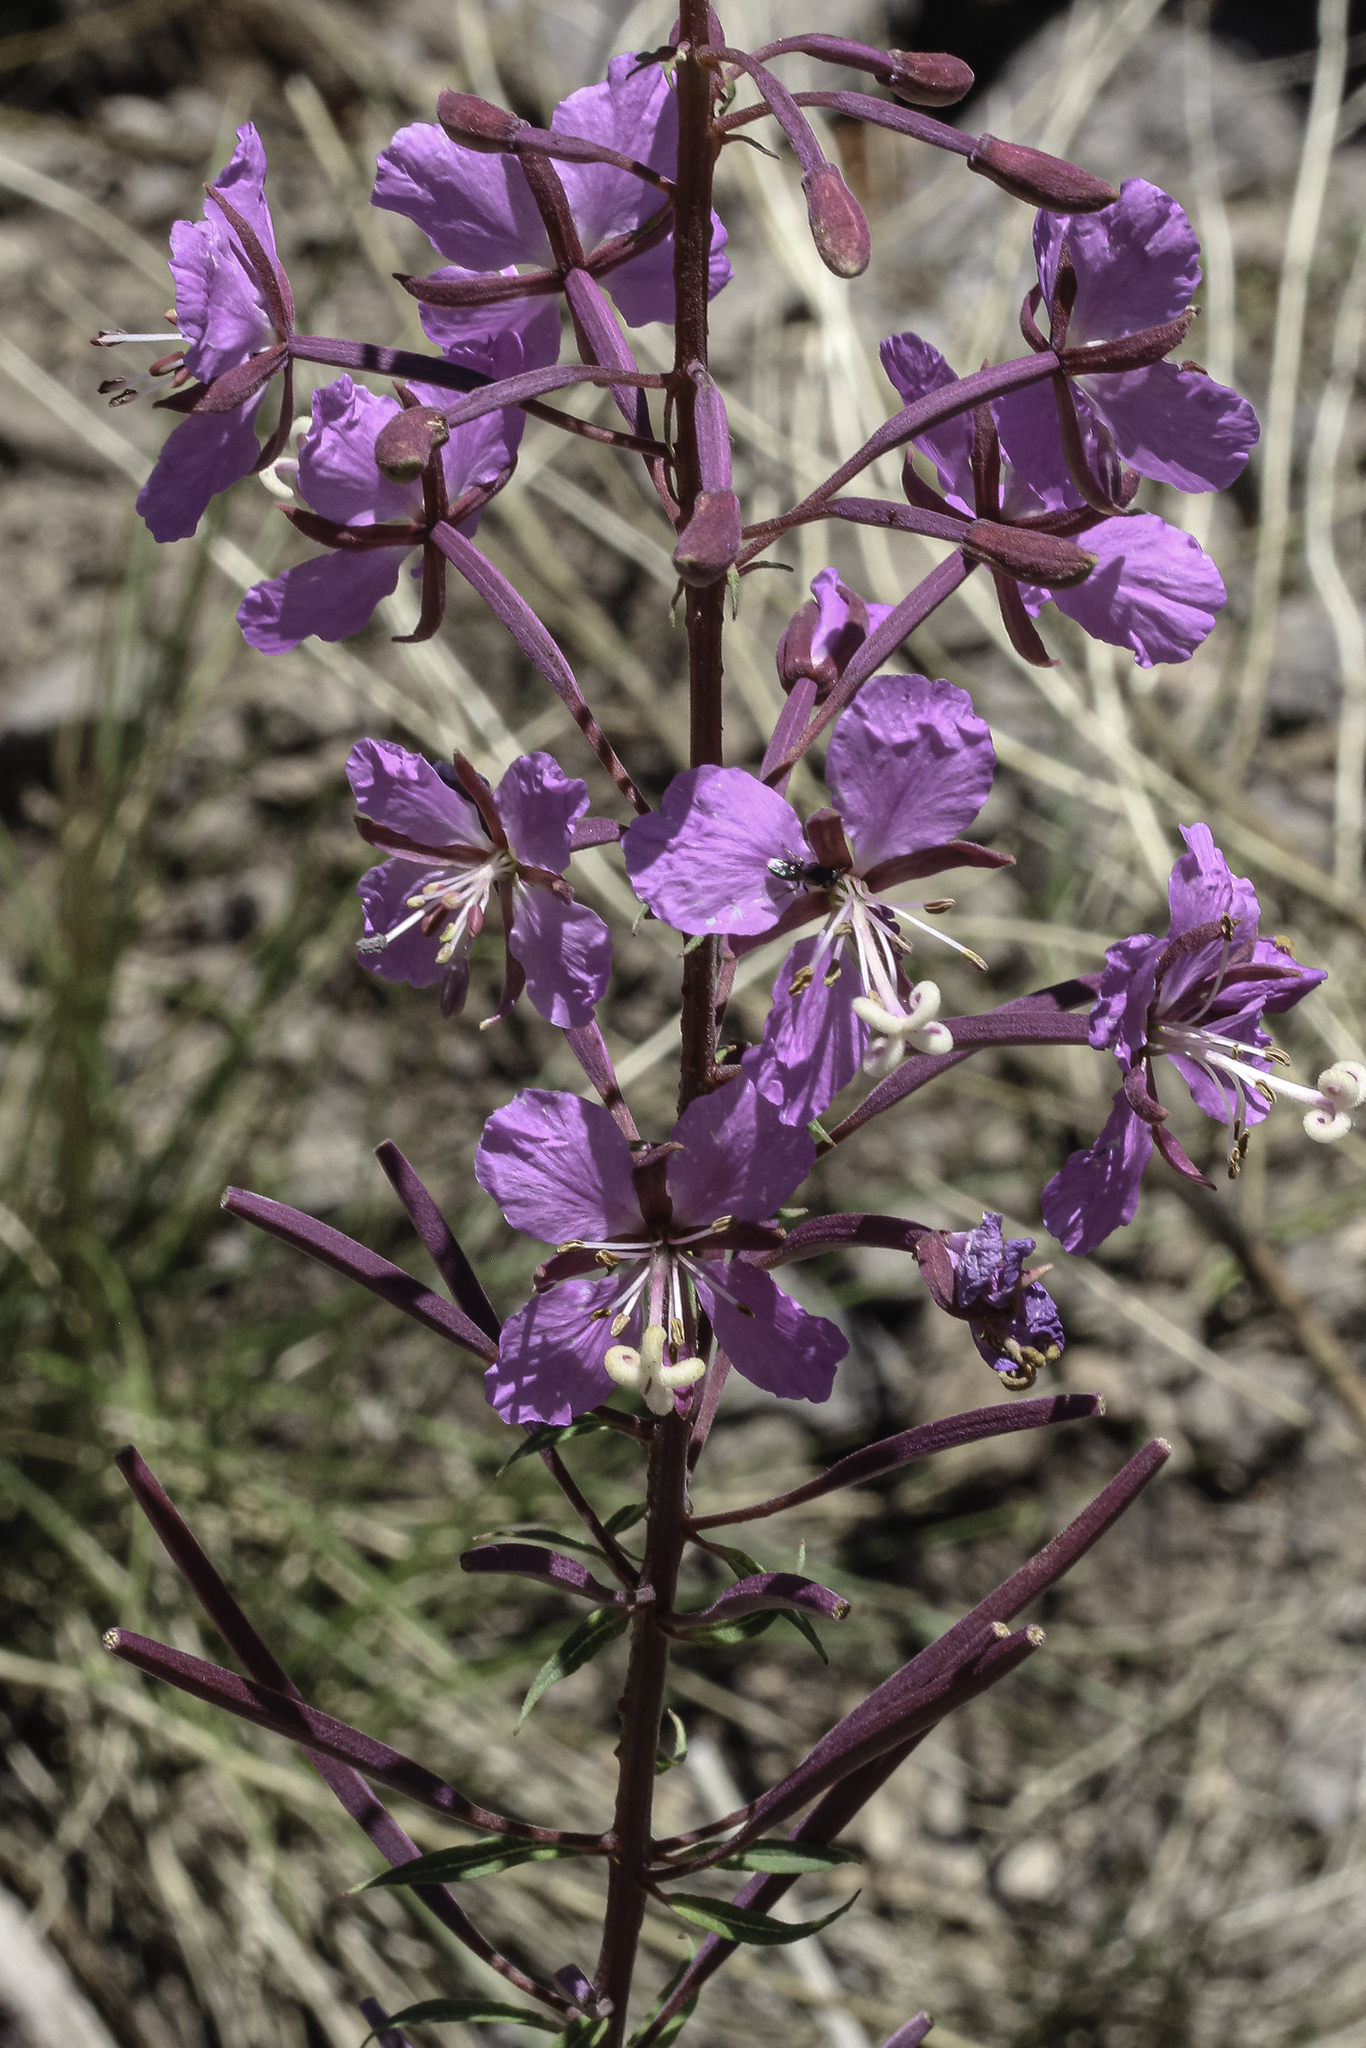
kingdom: Plantae
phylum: Tracheophyta
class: Magnoliopsida
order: Myrtales
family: Onagraceae
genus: Chamaenerion
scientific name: Chamaenerion angustifolium
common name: Fireweed
